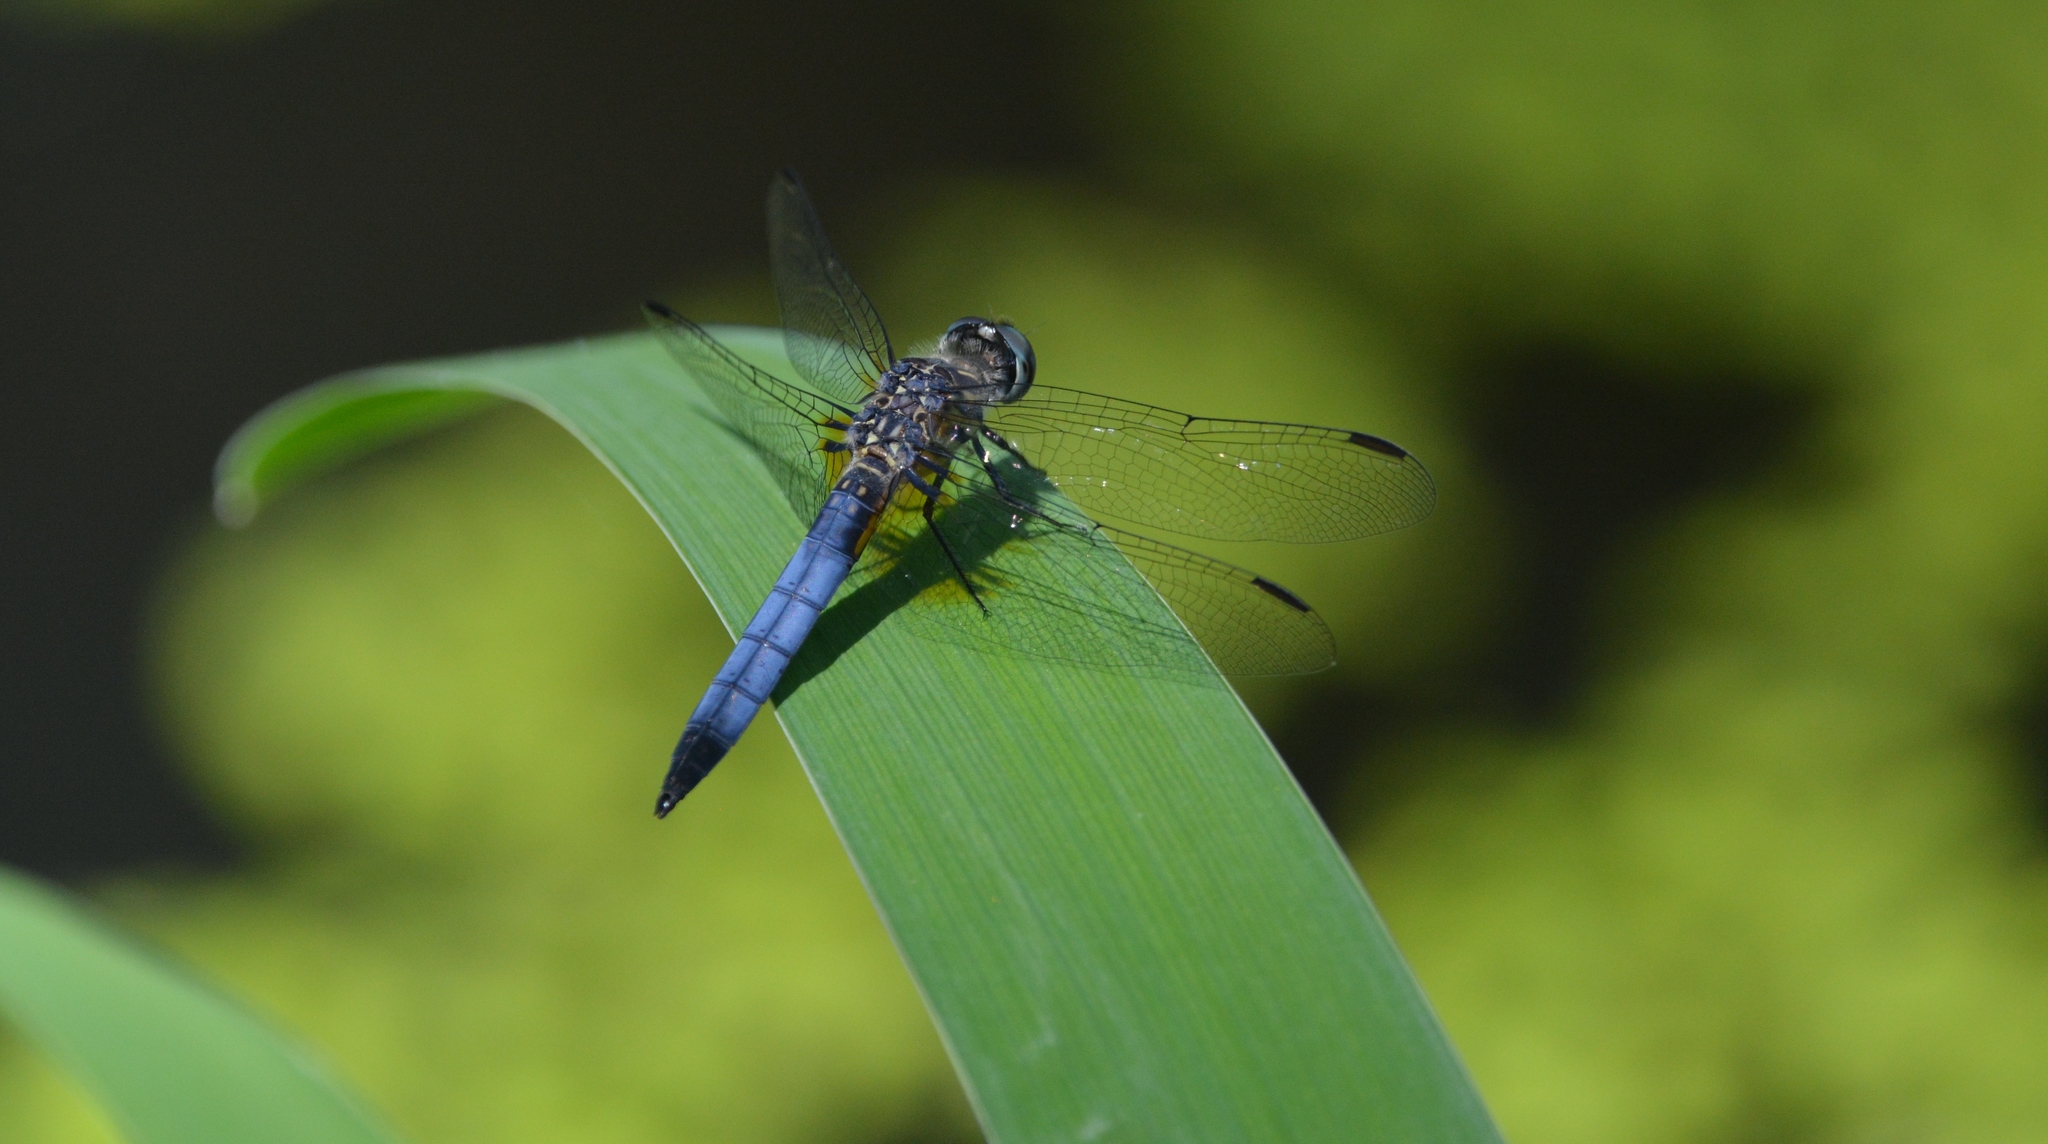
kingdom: Animalia
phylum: Arthropoda
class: Insecta
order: Odonata
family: Libellulidae
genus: Pachydiplax
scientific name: Pachydiplax longipennis
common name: Blue dasher
